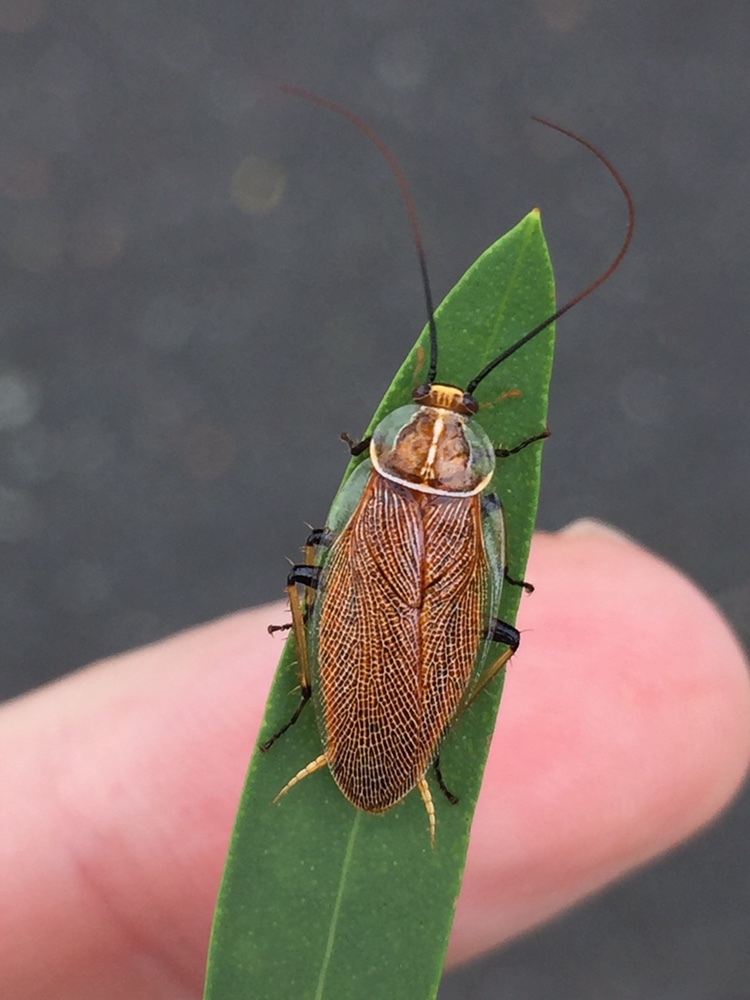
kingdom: Animalia
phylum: Arthropoda
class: Insecta
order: Blattodea
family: Ectobiidae
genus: Balta
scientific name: Balta bicolor
